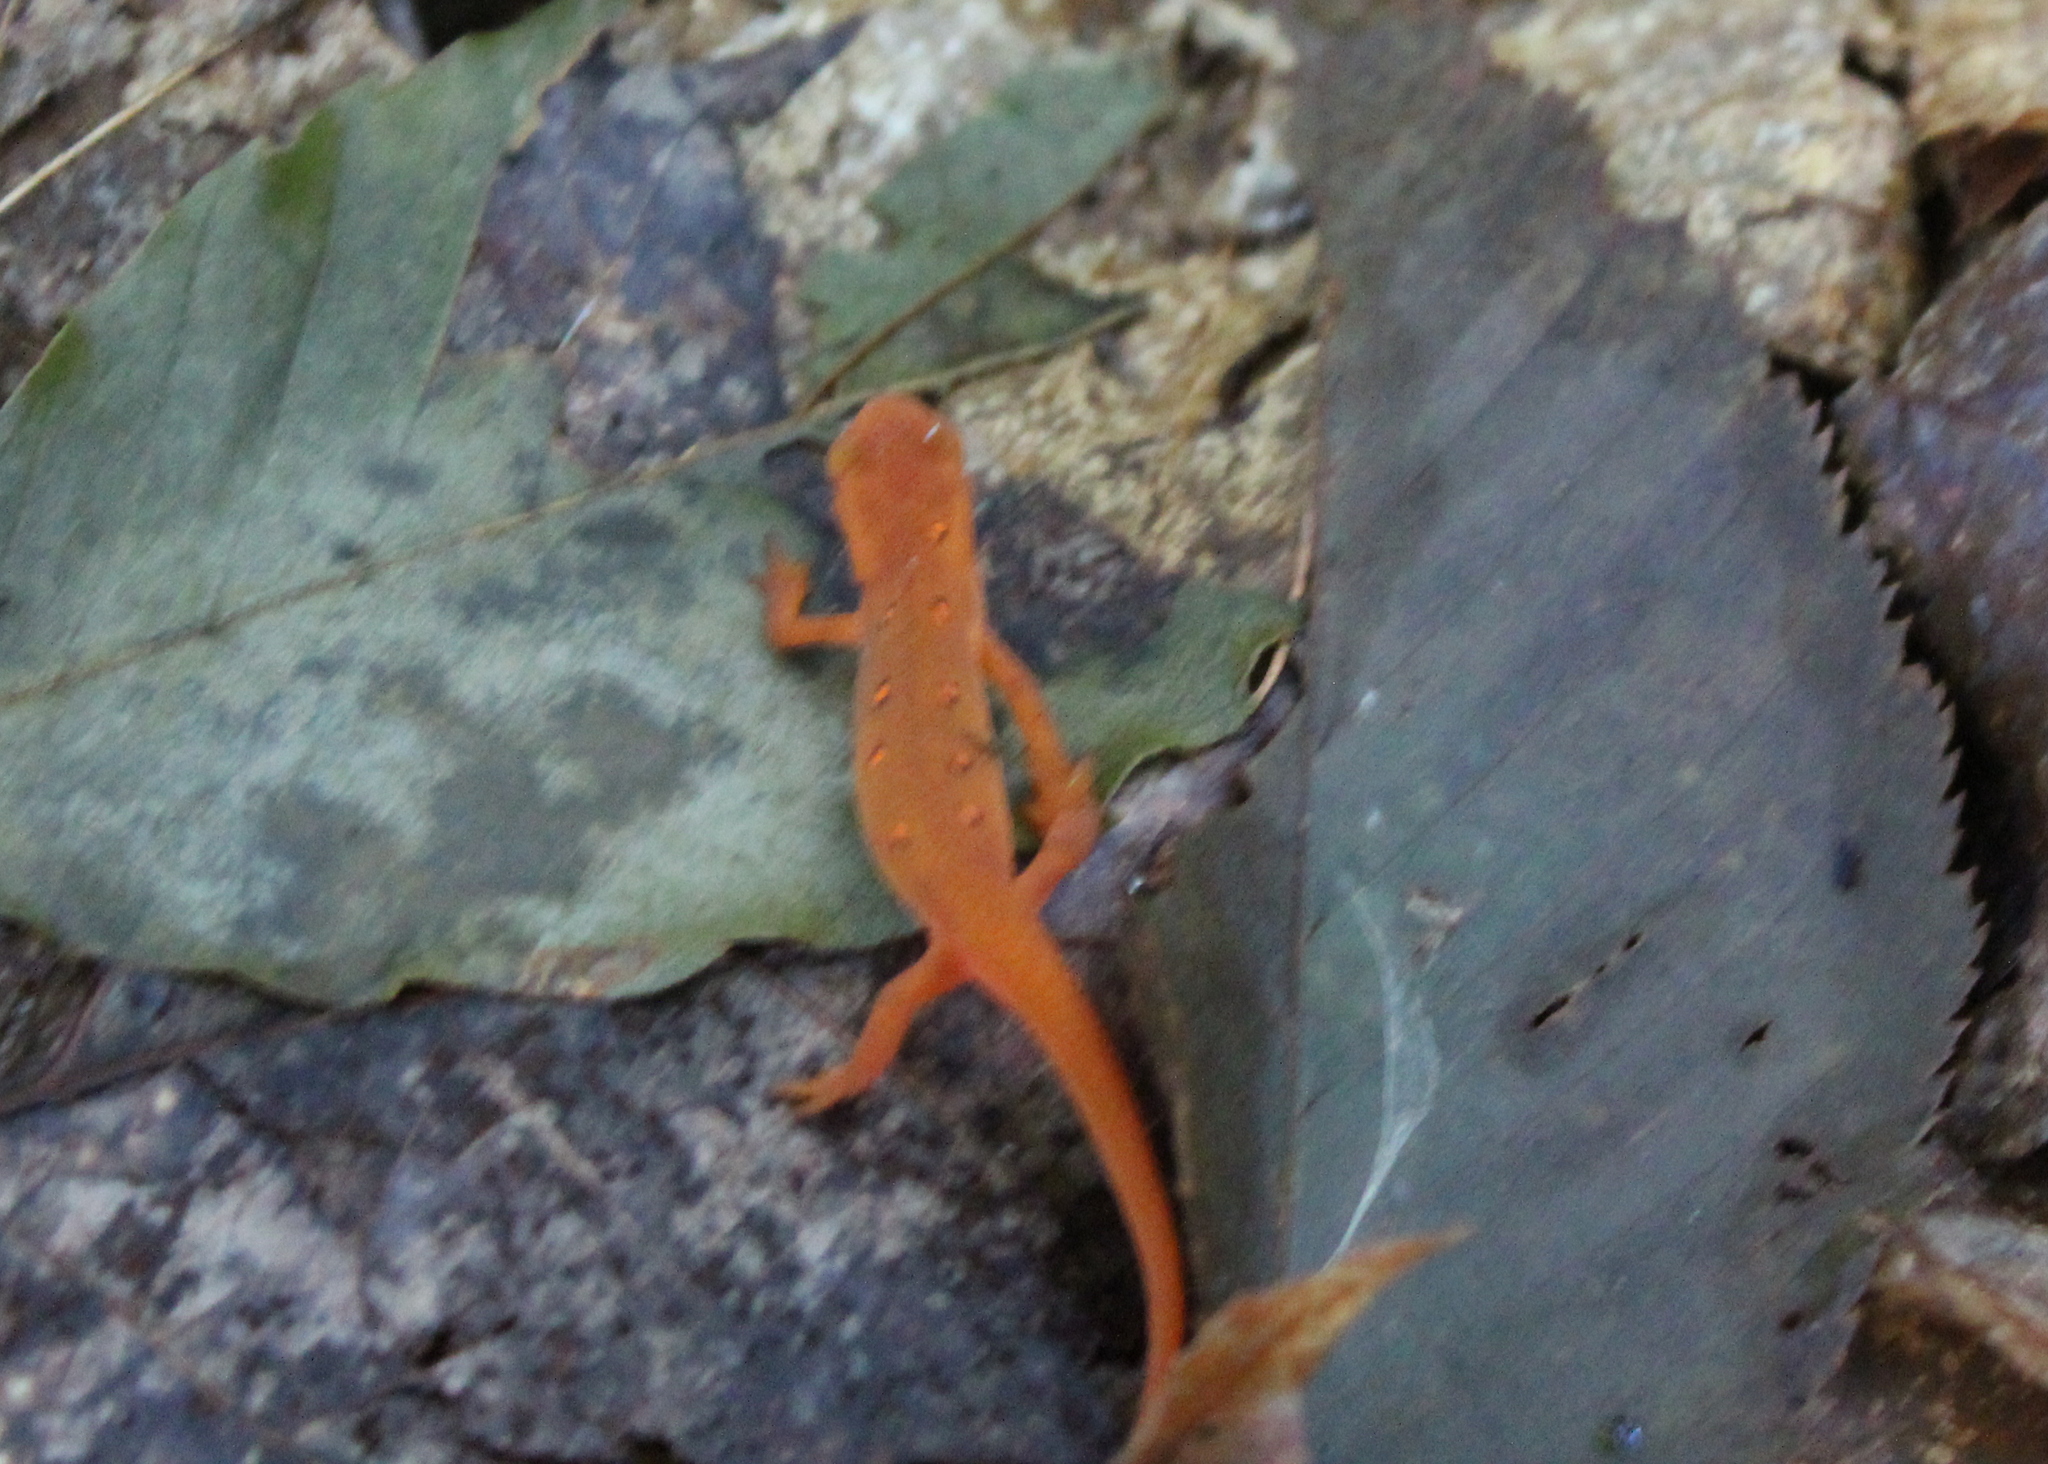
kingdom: Animalia
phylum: Chordata
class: Amphibia
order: Caudata
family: Salamandridae
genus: Notophthalmus
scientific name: Notophthalmus viridescens
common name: Eastern newt
